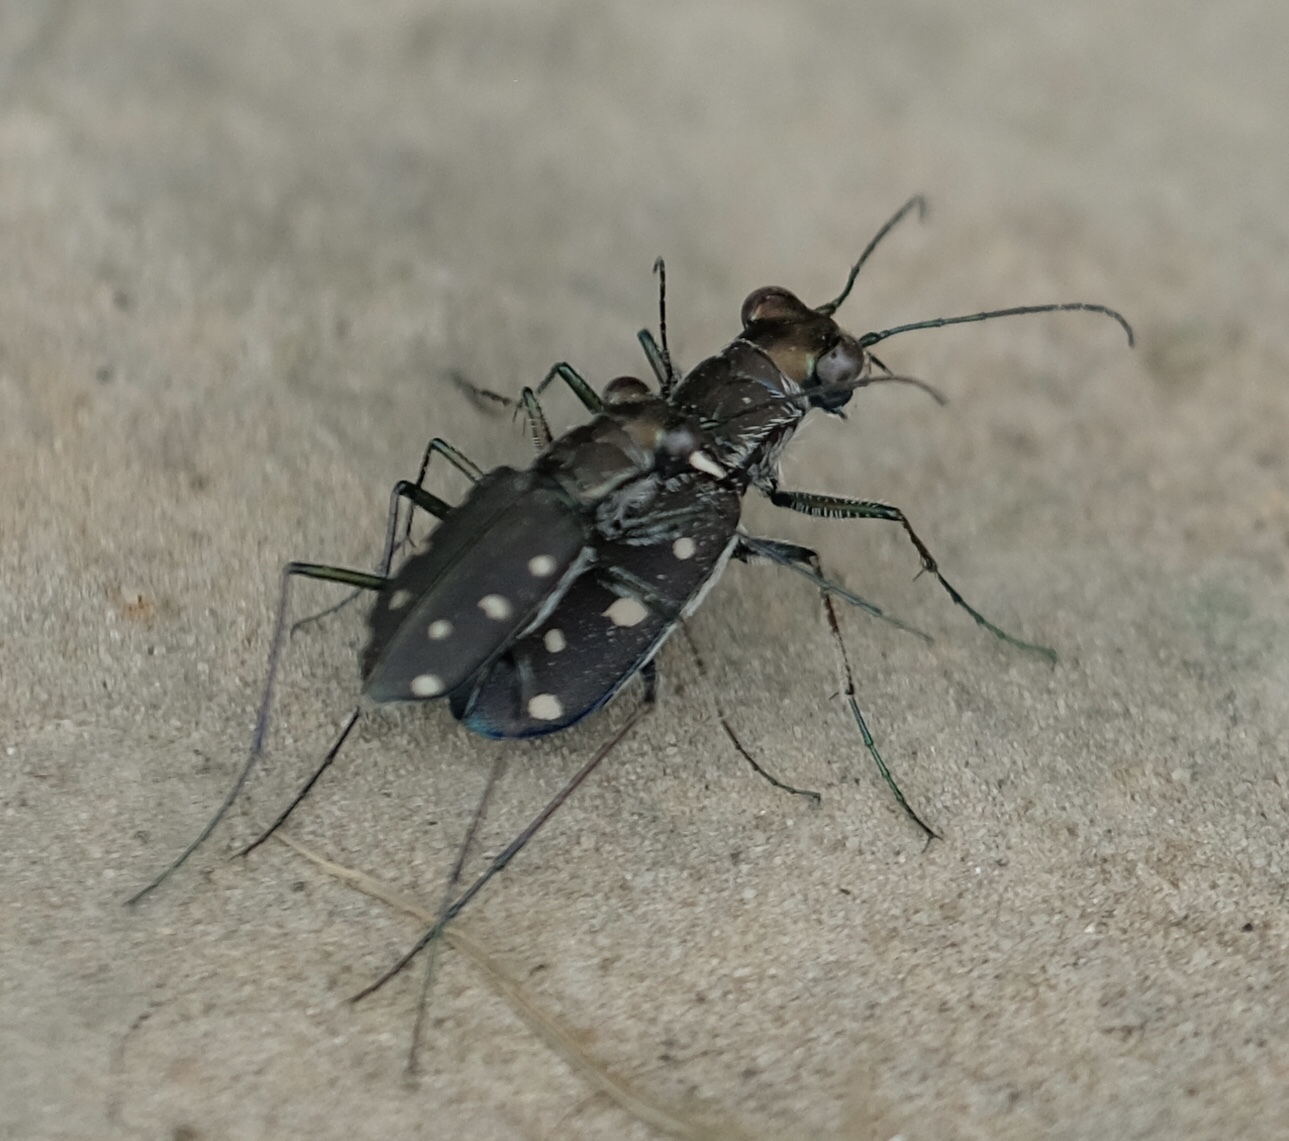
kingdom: Animalia
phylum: Arthropoda
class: Insecta
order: Coleoptera
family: Carabidae
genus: Cicindela
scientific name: Cicindela ocellata
